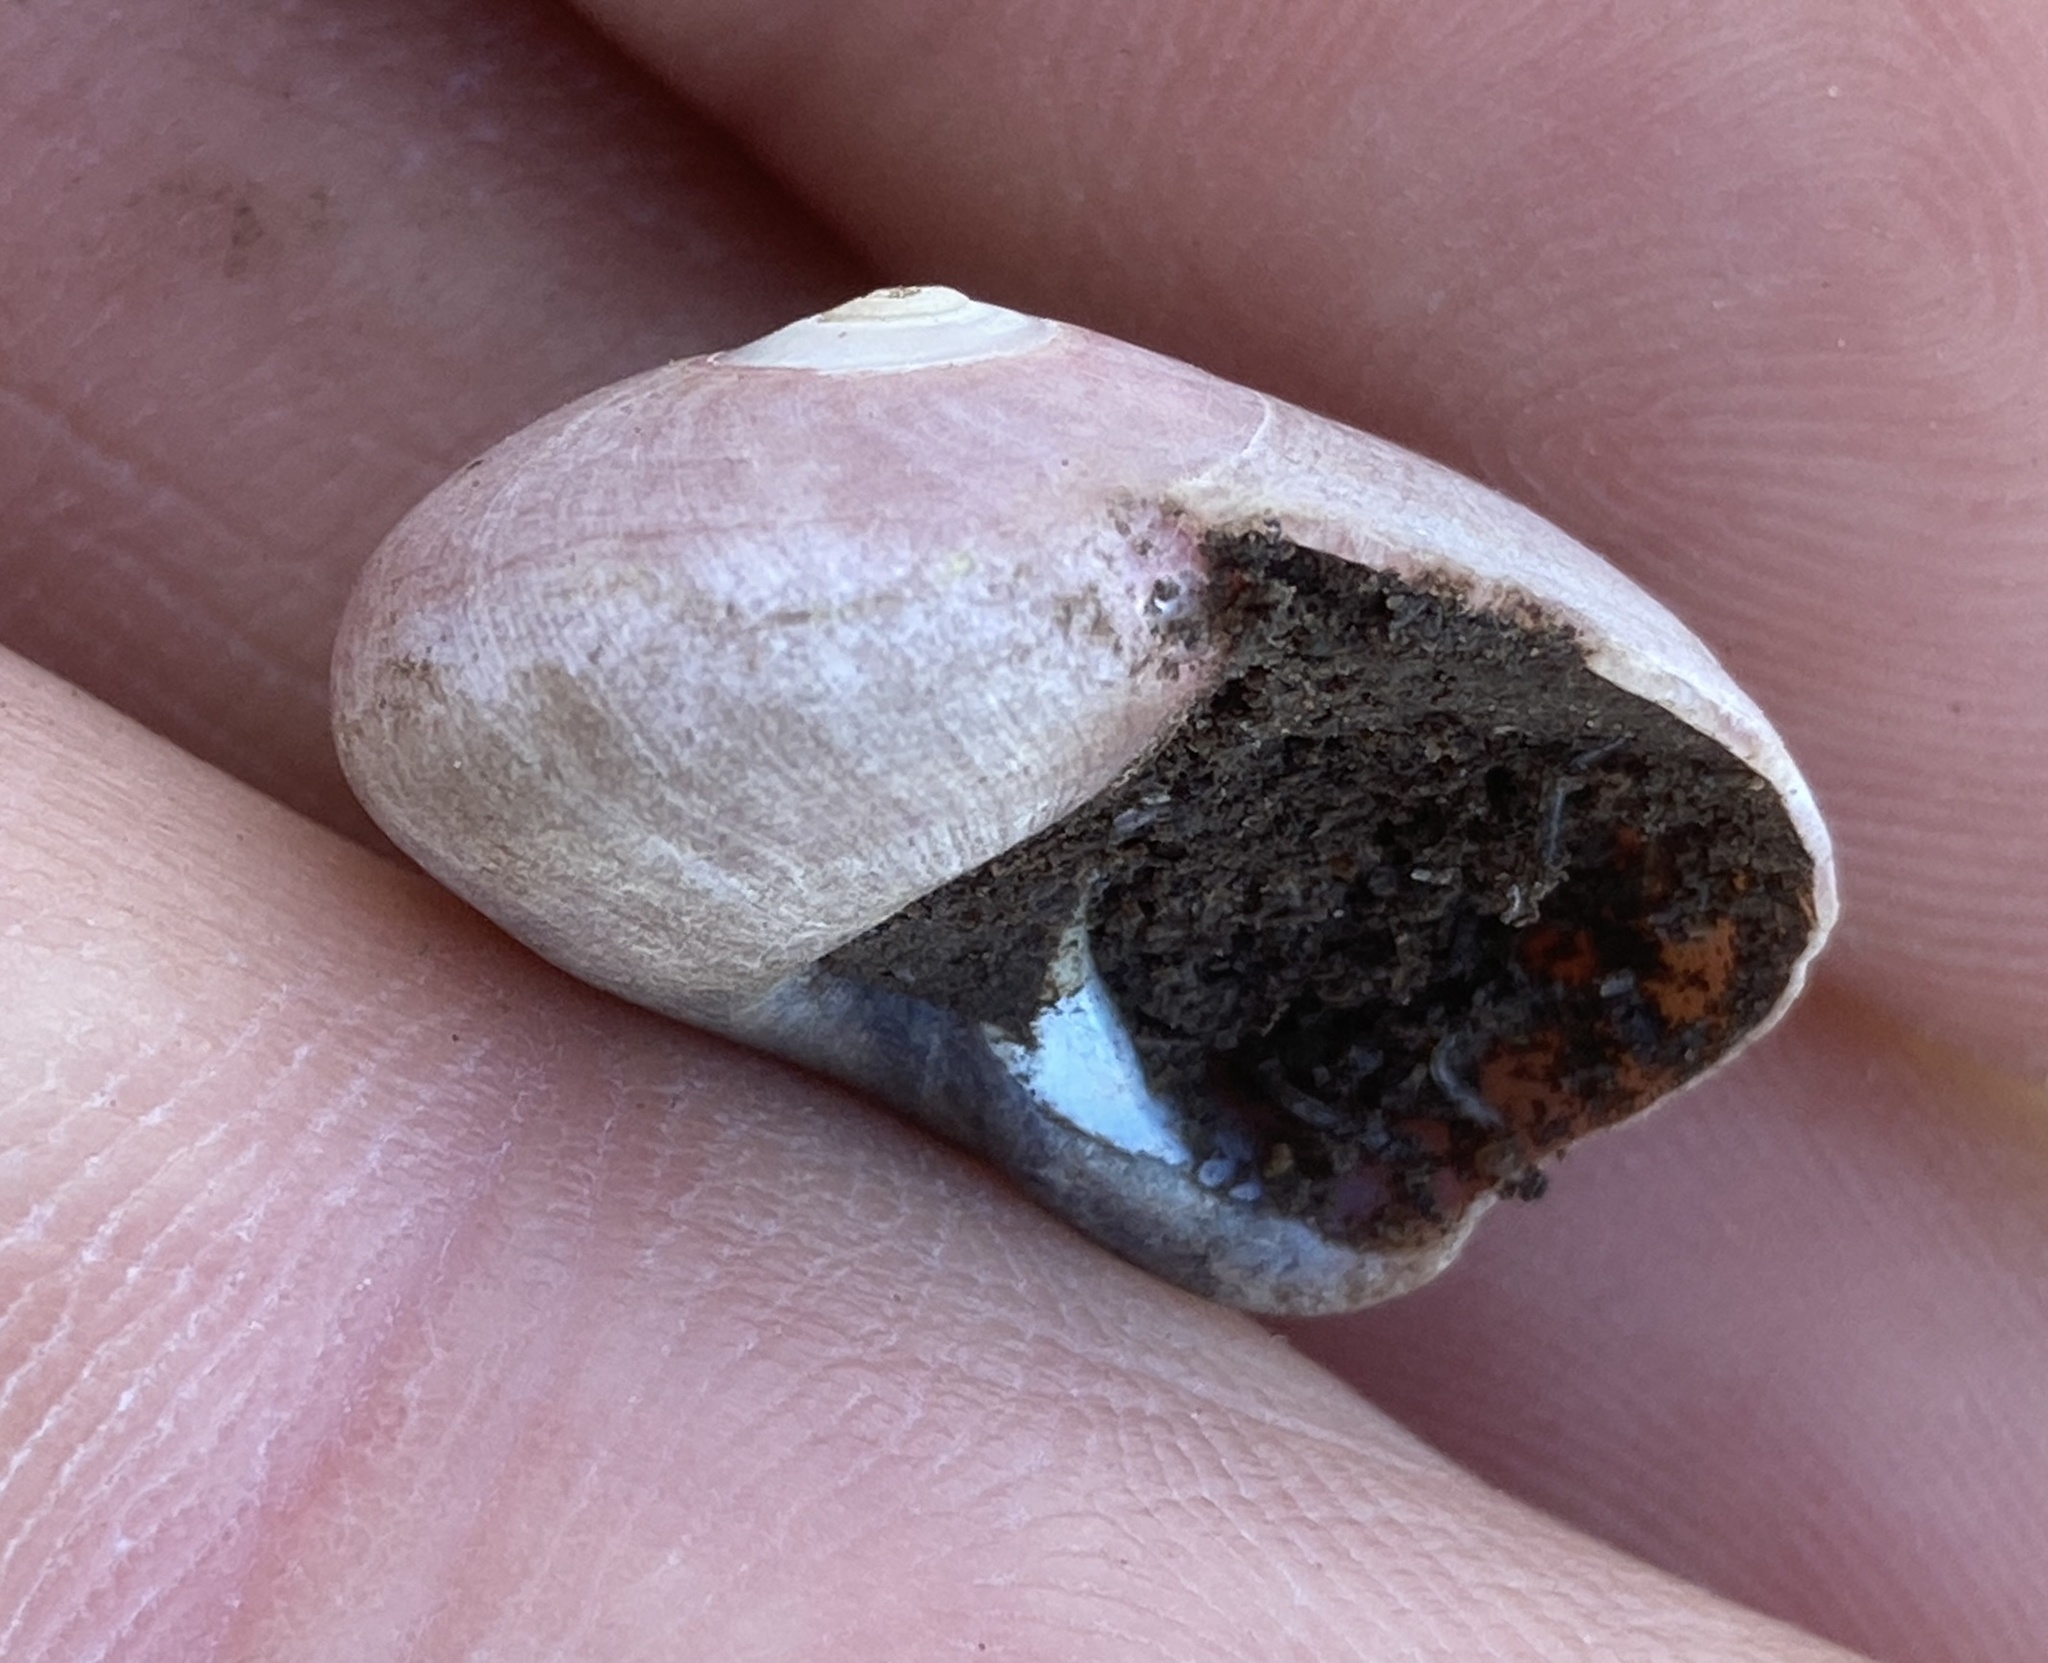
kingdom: Animalia
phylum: Mollusca
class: Gastropoda
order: Trochida
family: Tegulidae
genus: Norrisia
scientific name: Norrisia norrisii
